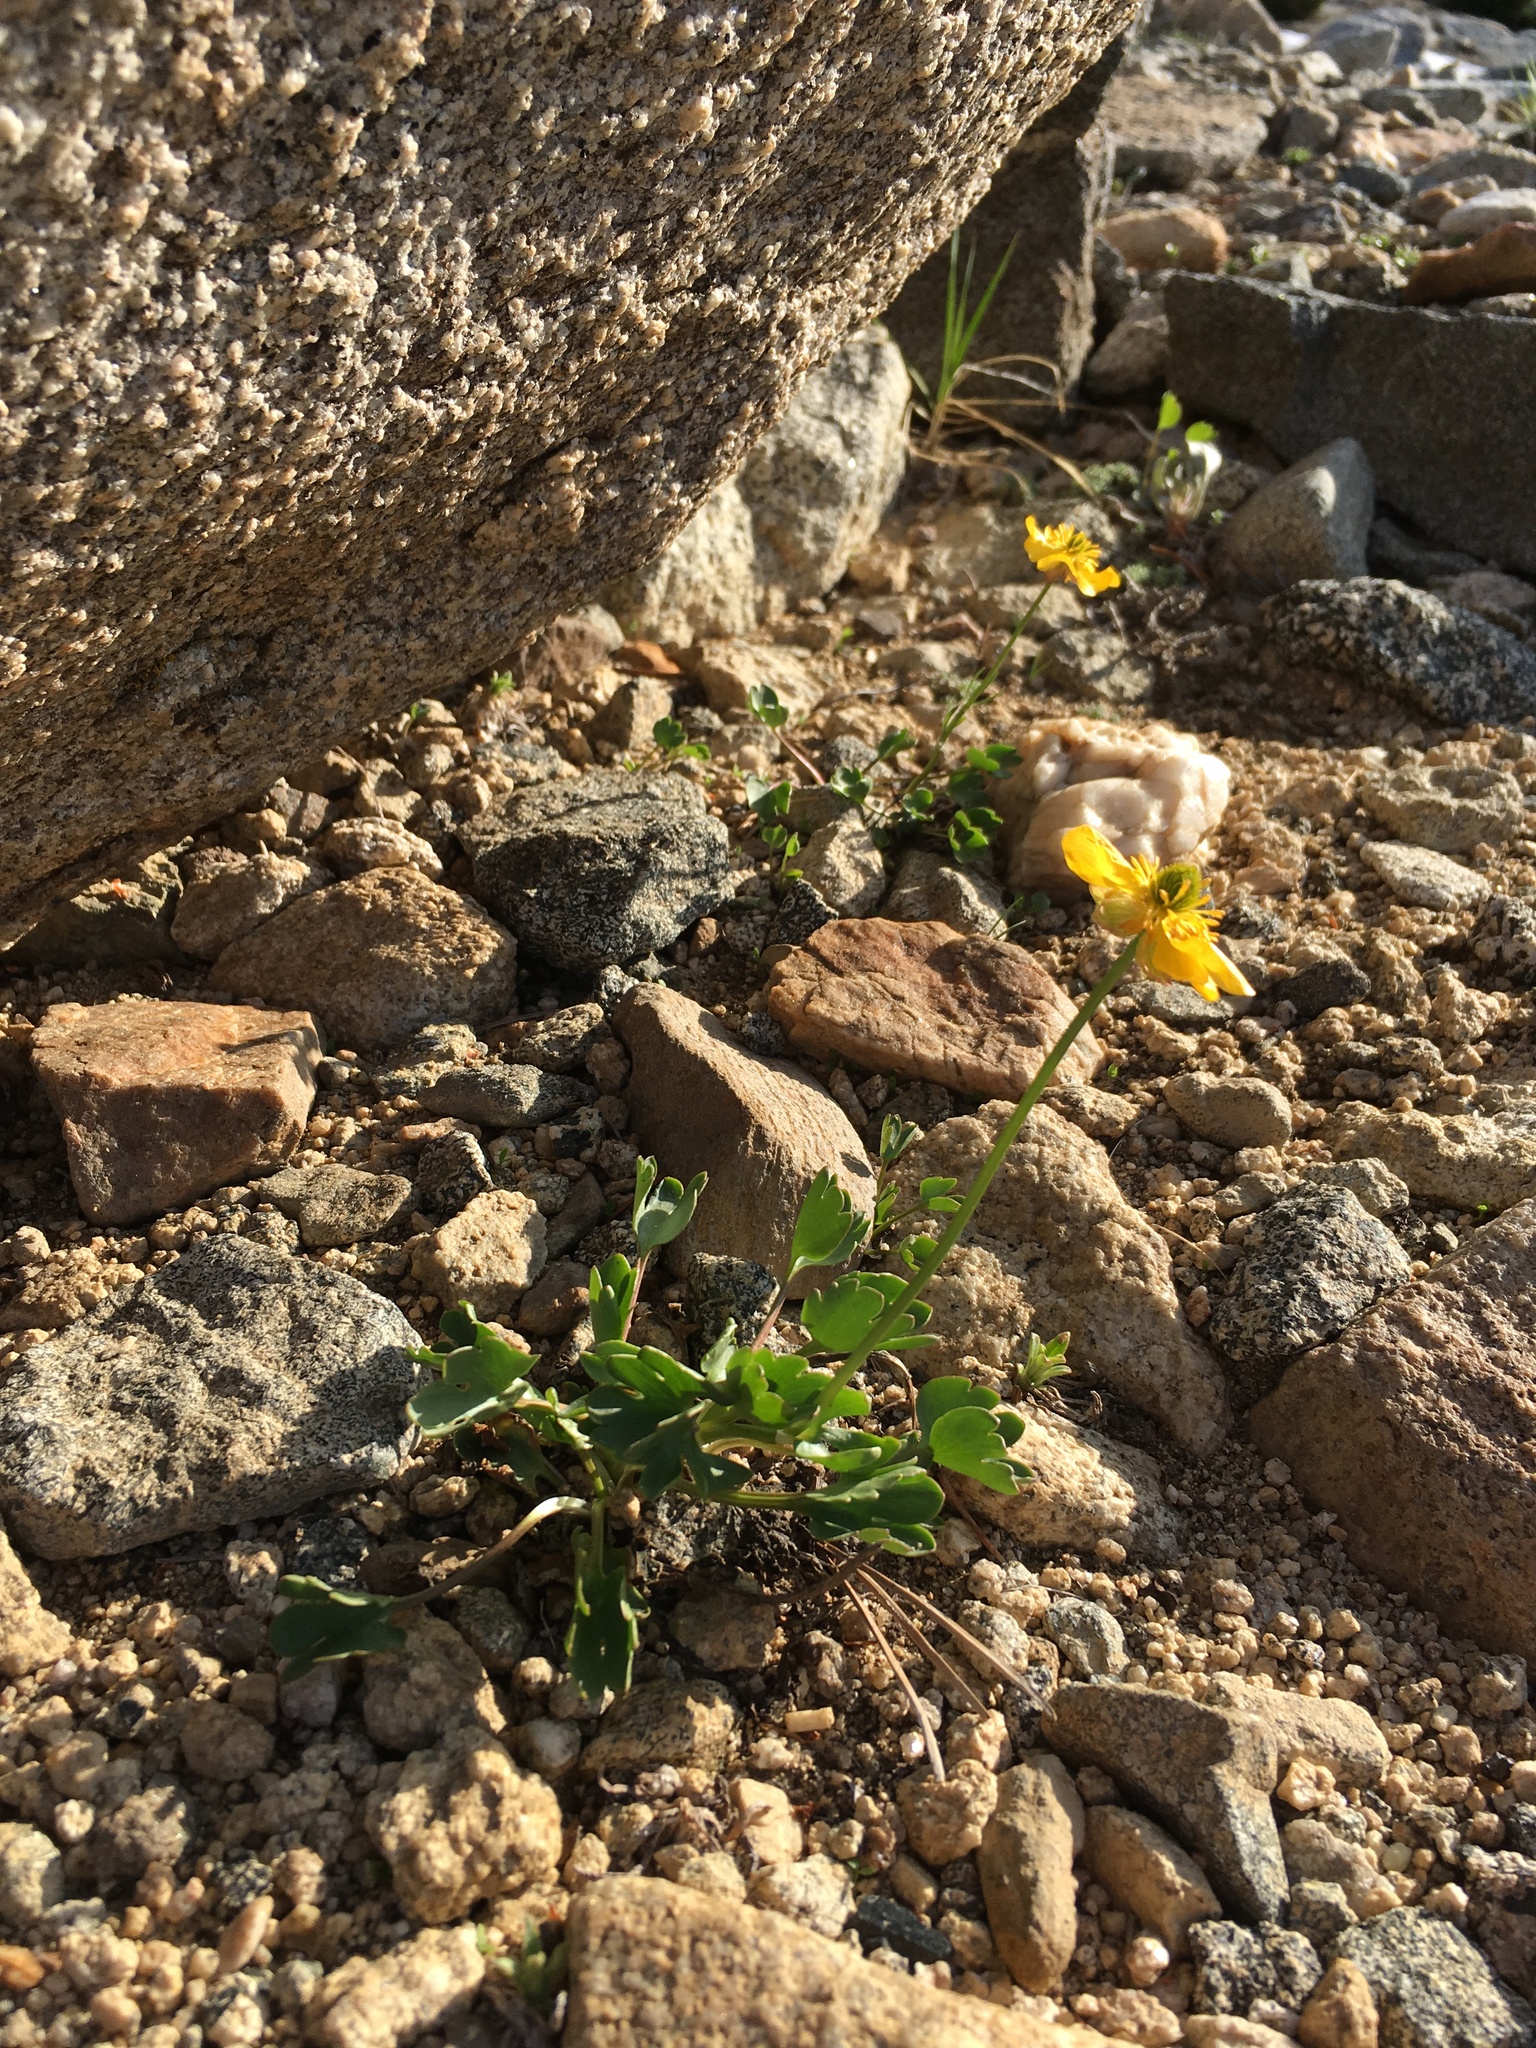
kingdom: Plantae
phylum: Tracheophyta
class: Magnoliopsida
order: Ranunculales
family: Ranunculaceae
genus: Ranunculus
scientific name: Ranunculus eschscholtzii
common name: Eschscholtz's buttercup
